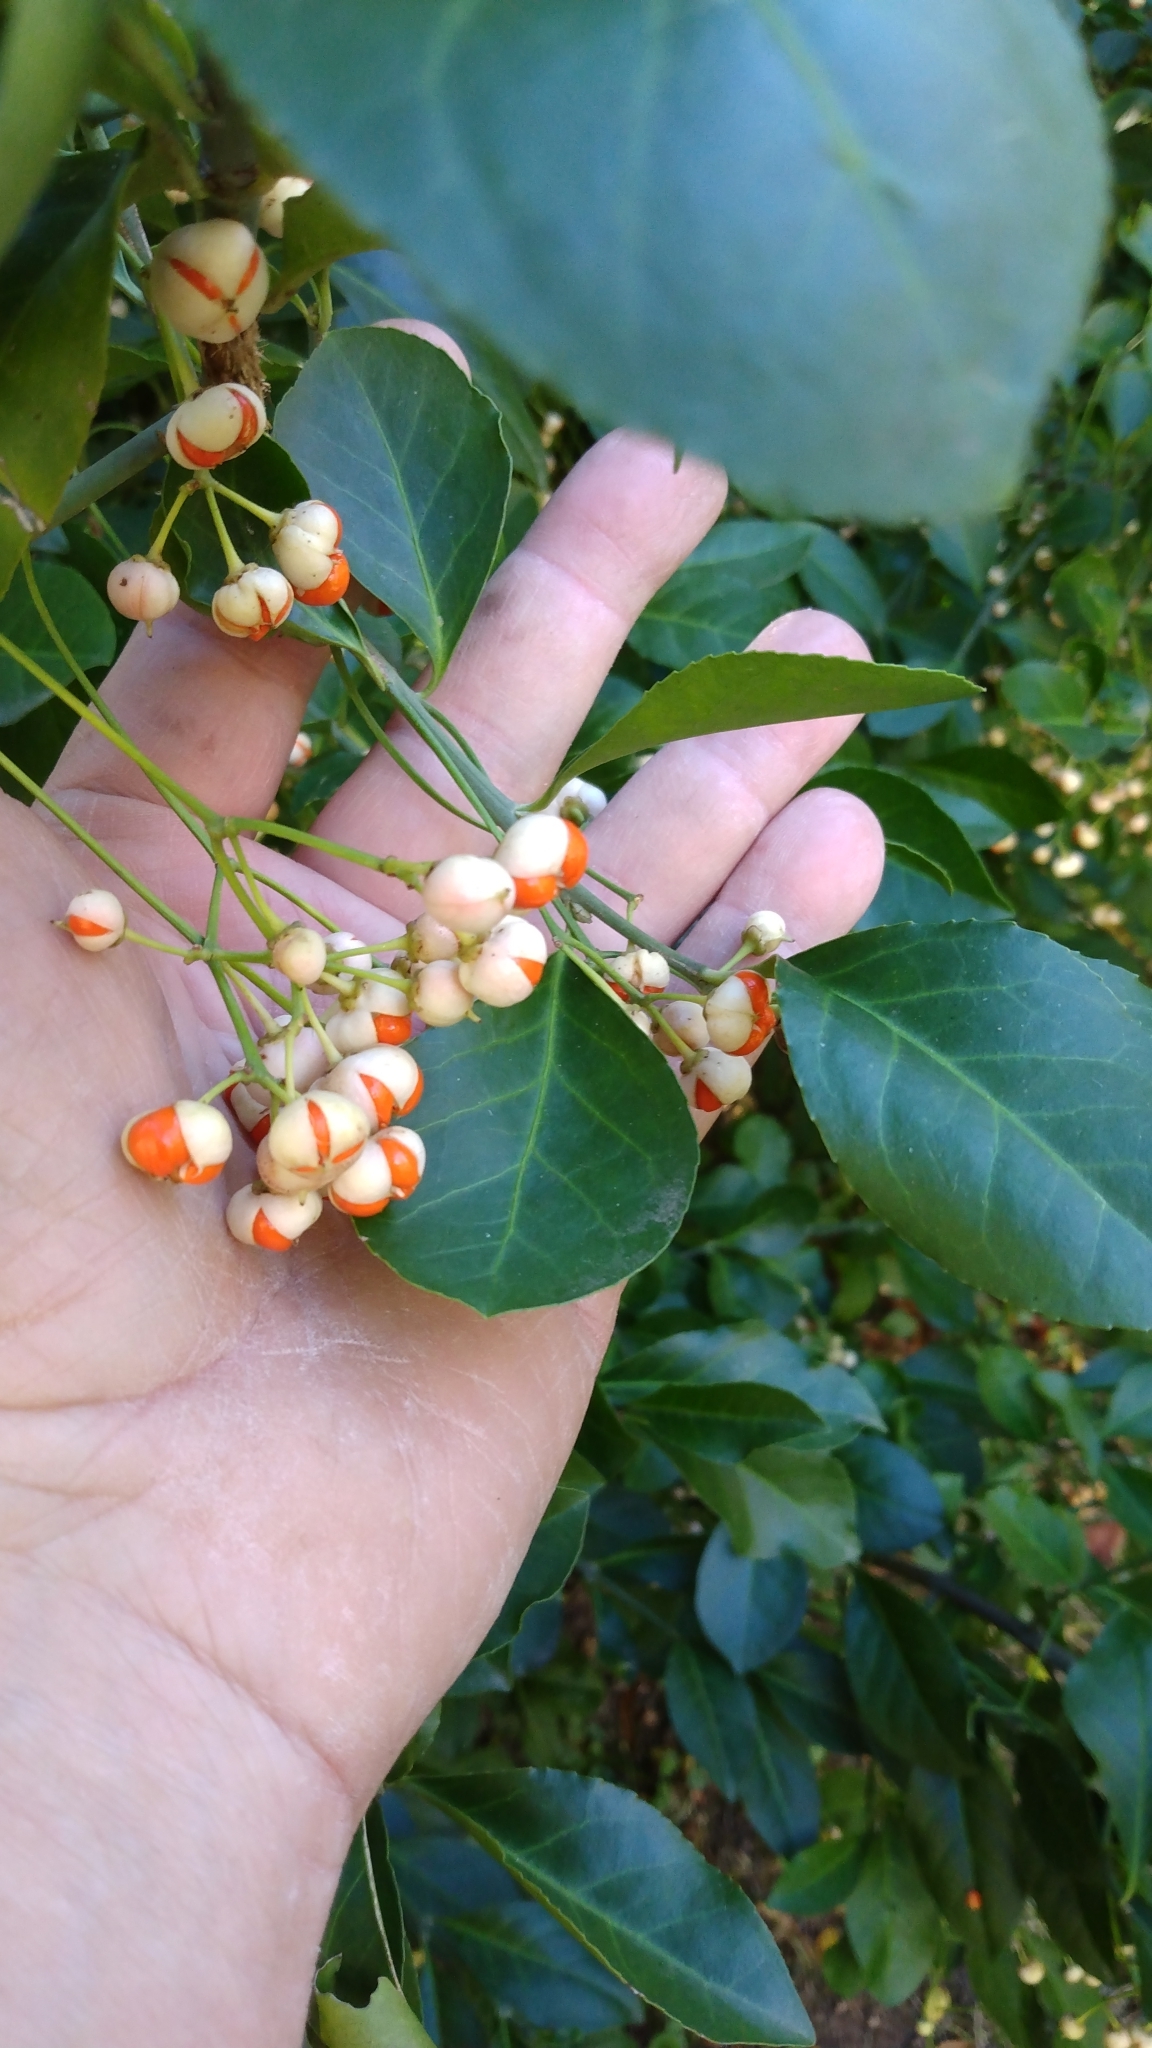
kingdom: Plantae
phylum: Tracheophyta
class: Magnoliopsida
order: Celastrales
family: Celastraceae
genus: Euonymus
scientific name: Euonymus fortunei
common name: Climbing euonymus
